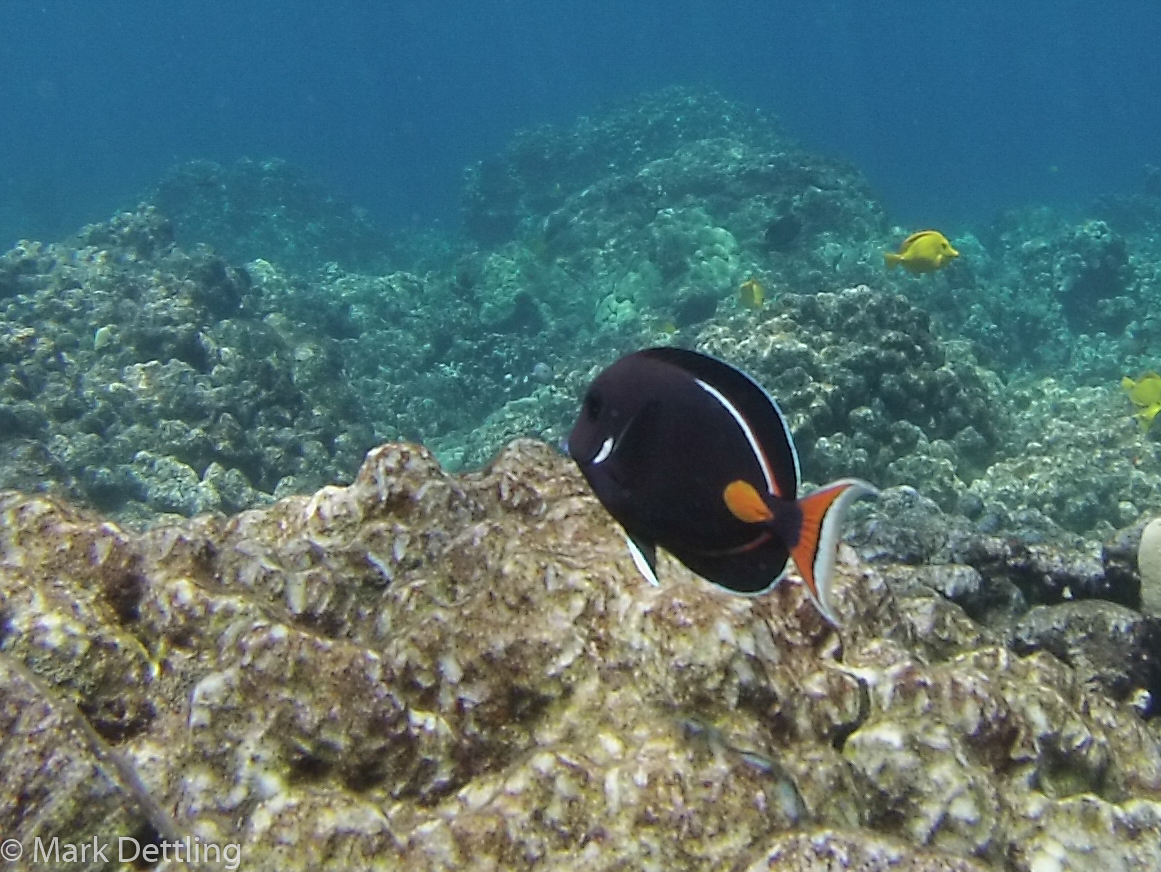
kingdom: Animalia
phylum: Chordata
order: Perciformes
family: Acanthuridae
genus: Acanthurus
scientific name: Acanthurus achilles
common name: Achilles tang
